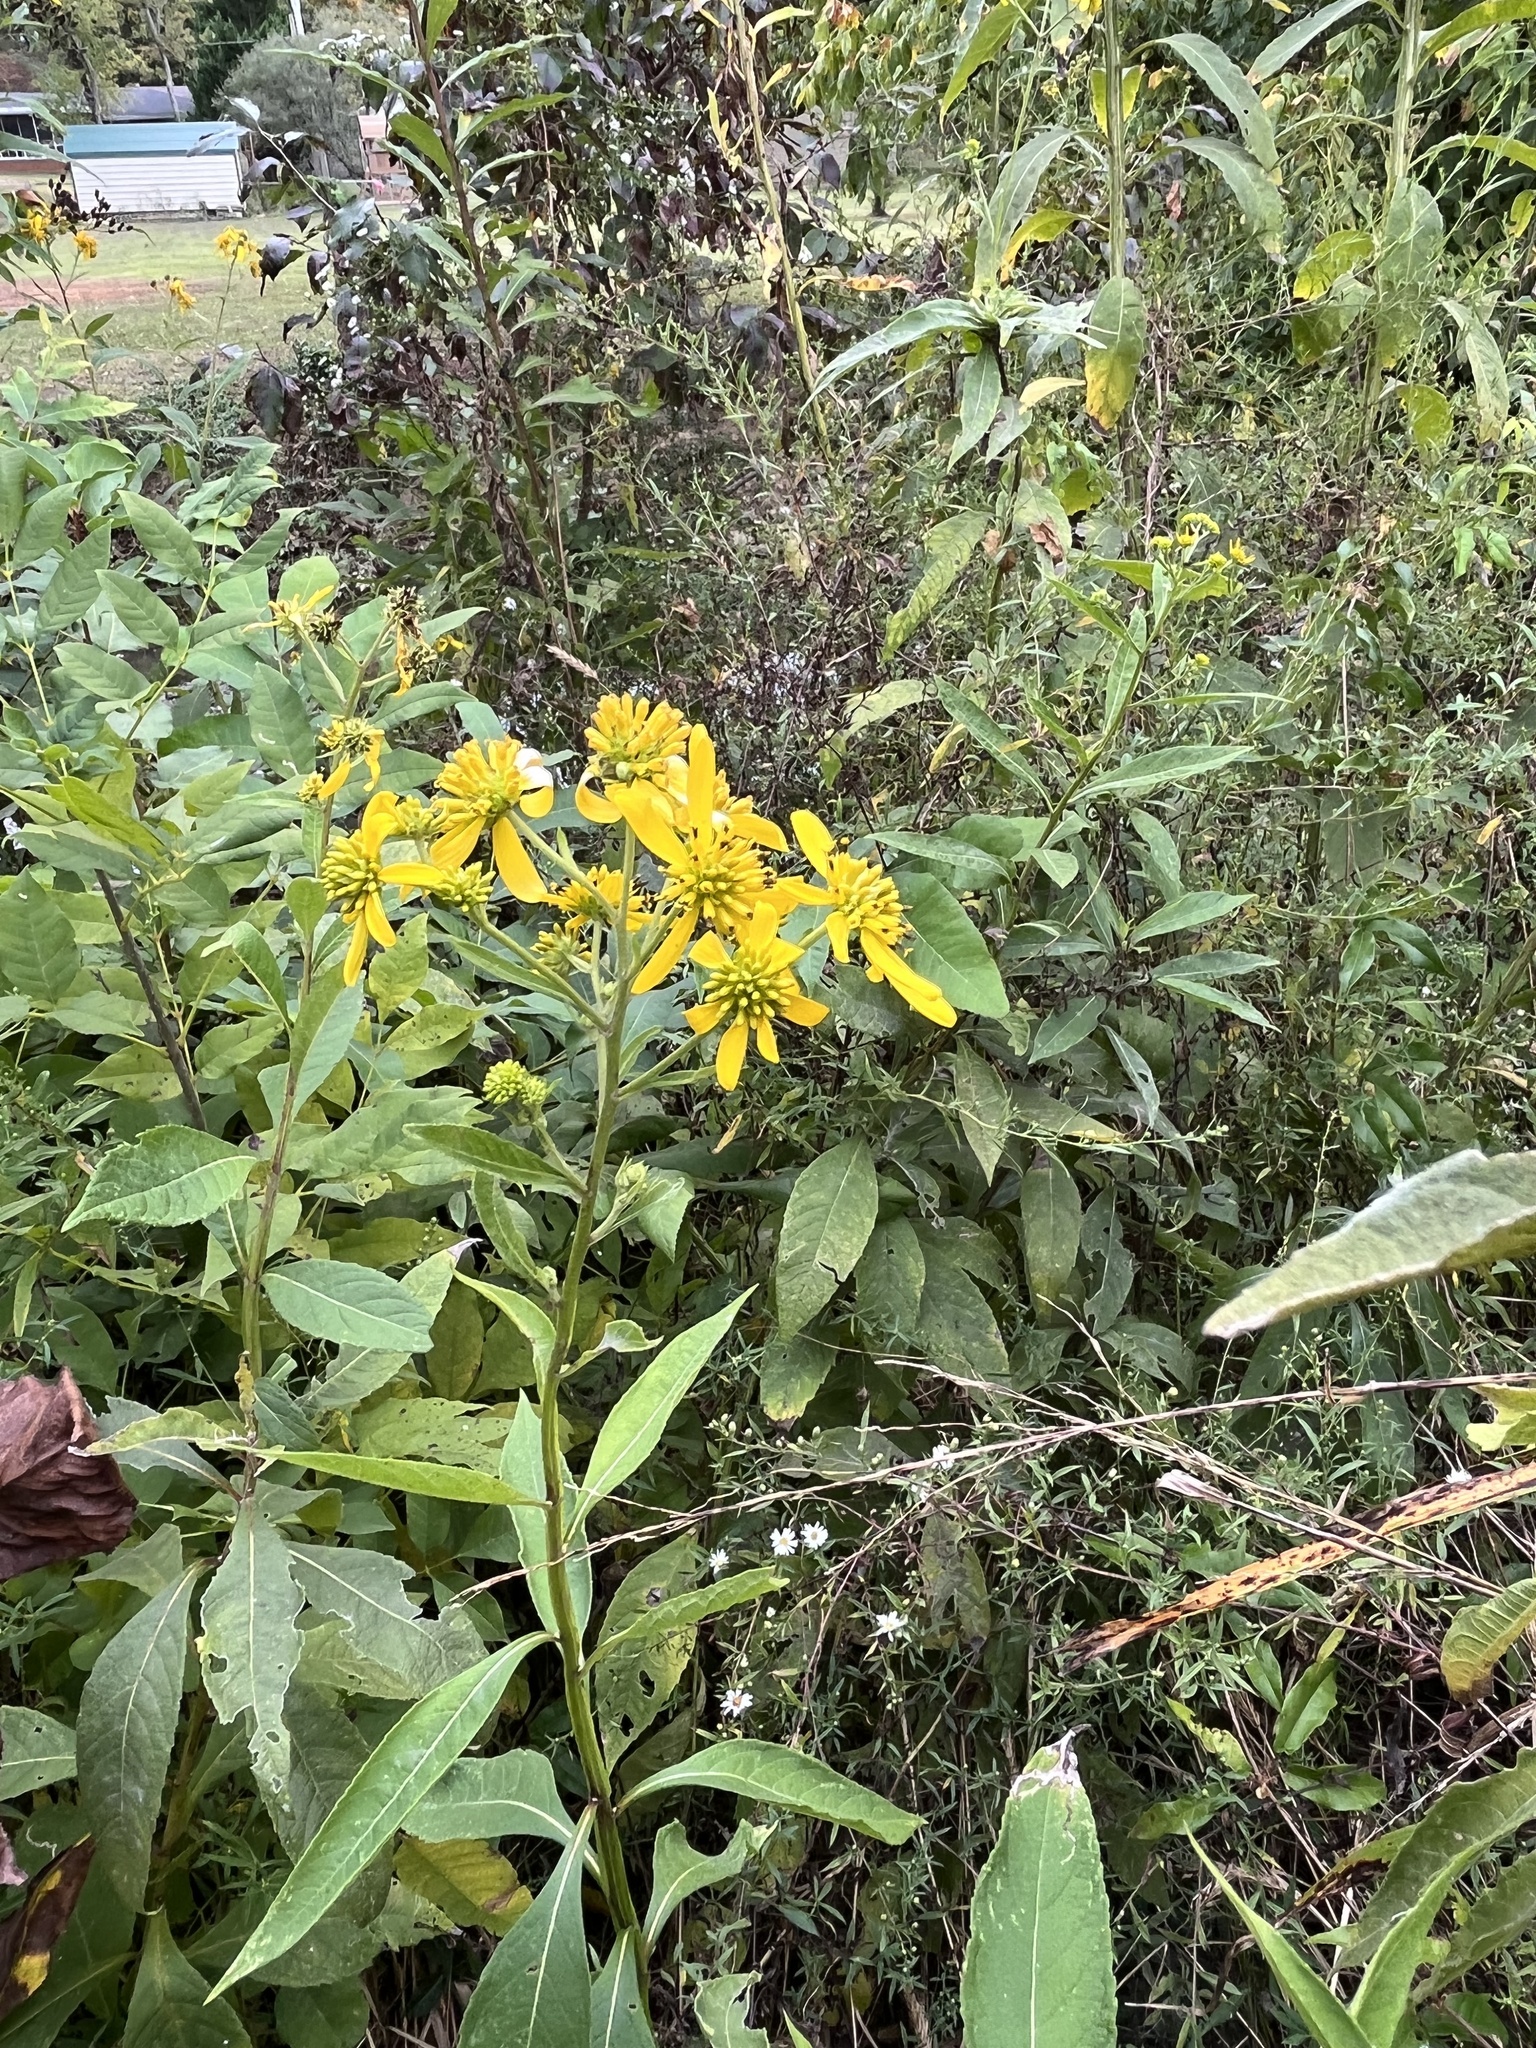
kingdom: Plantae
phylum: Tracheophyta
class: Magnoliopsida
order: Asterales
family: Asteraceae
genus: Verbesina
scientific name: Verbesina alternifolia
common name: Wingstem
